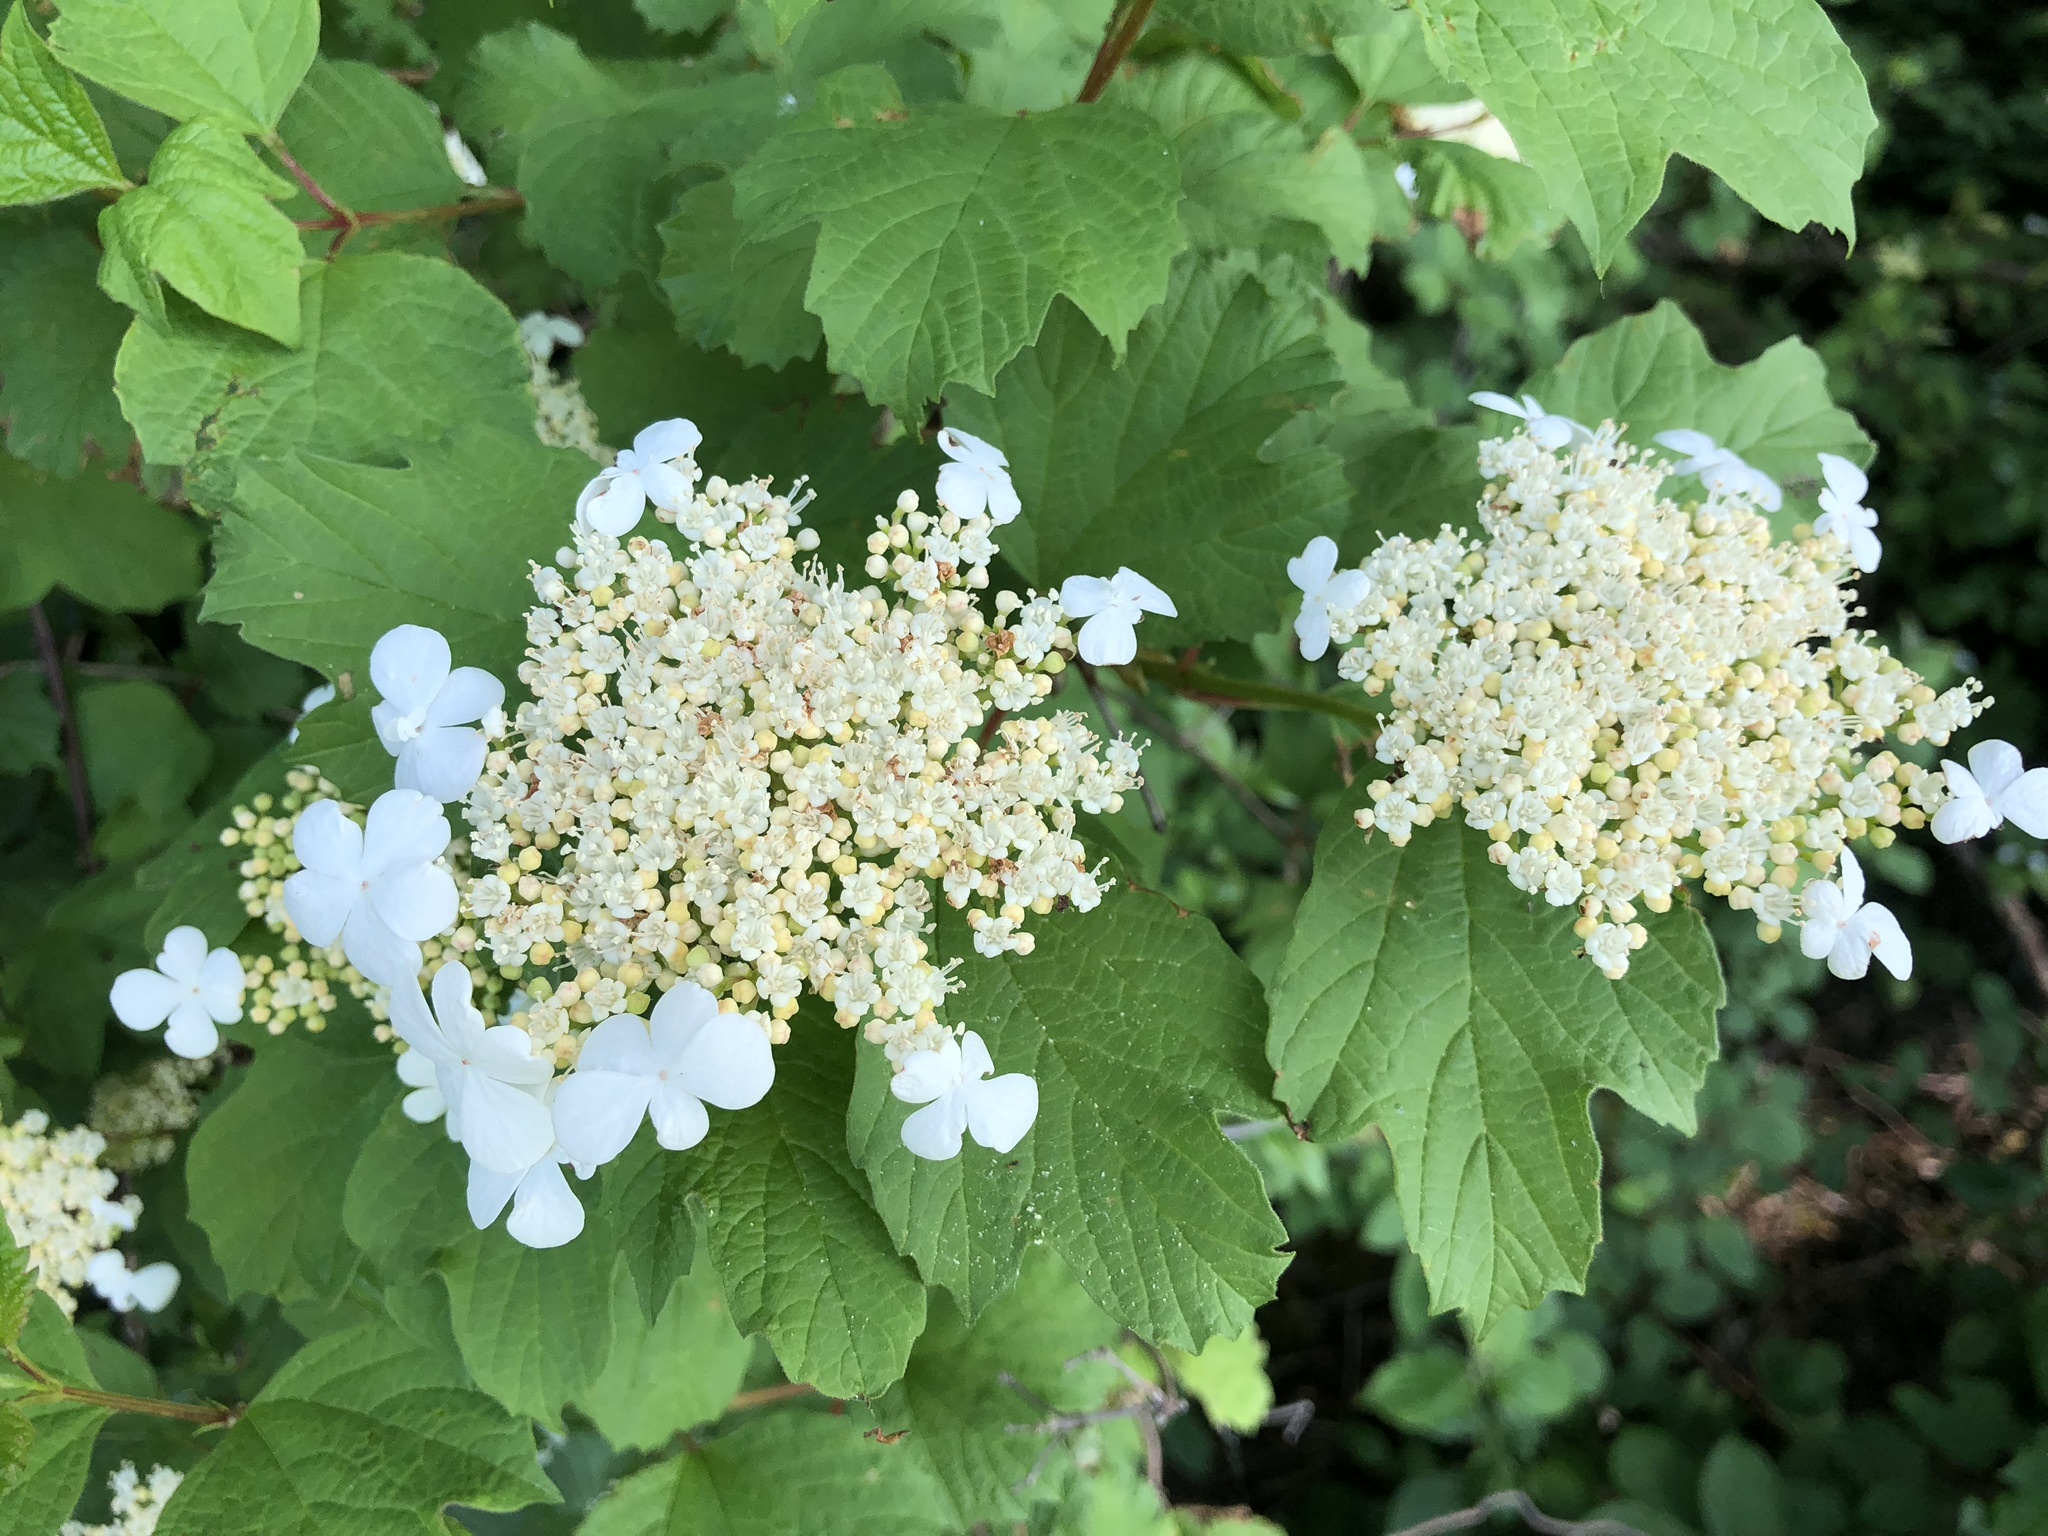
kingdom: Plantae
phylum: Tracheophyta
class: Magnoliopsida
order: Dipsacales
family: Viburnaceae
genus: Viburnum
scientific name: Viburnum opulus
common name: Guelder-rose
